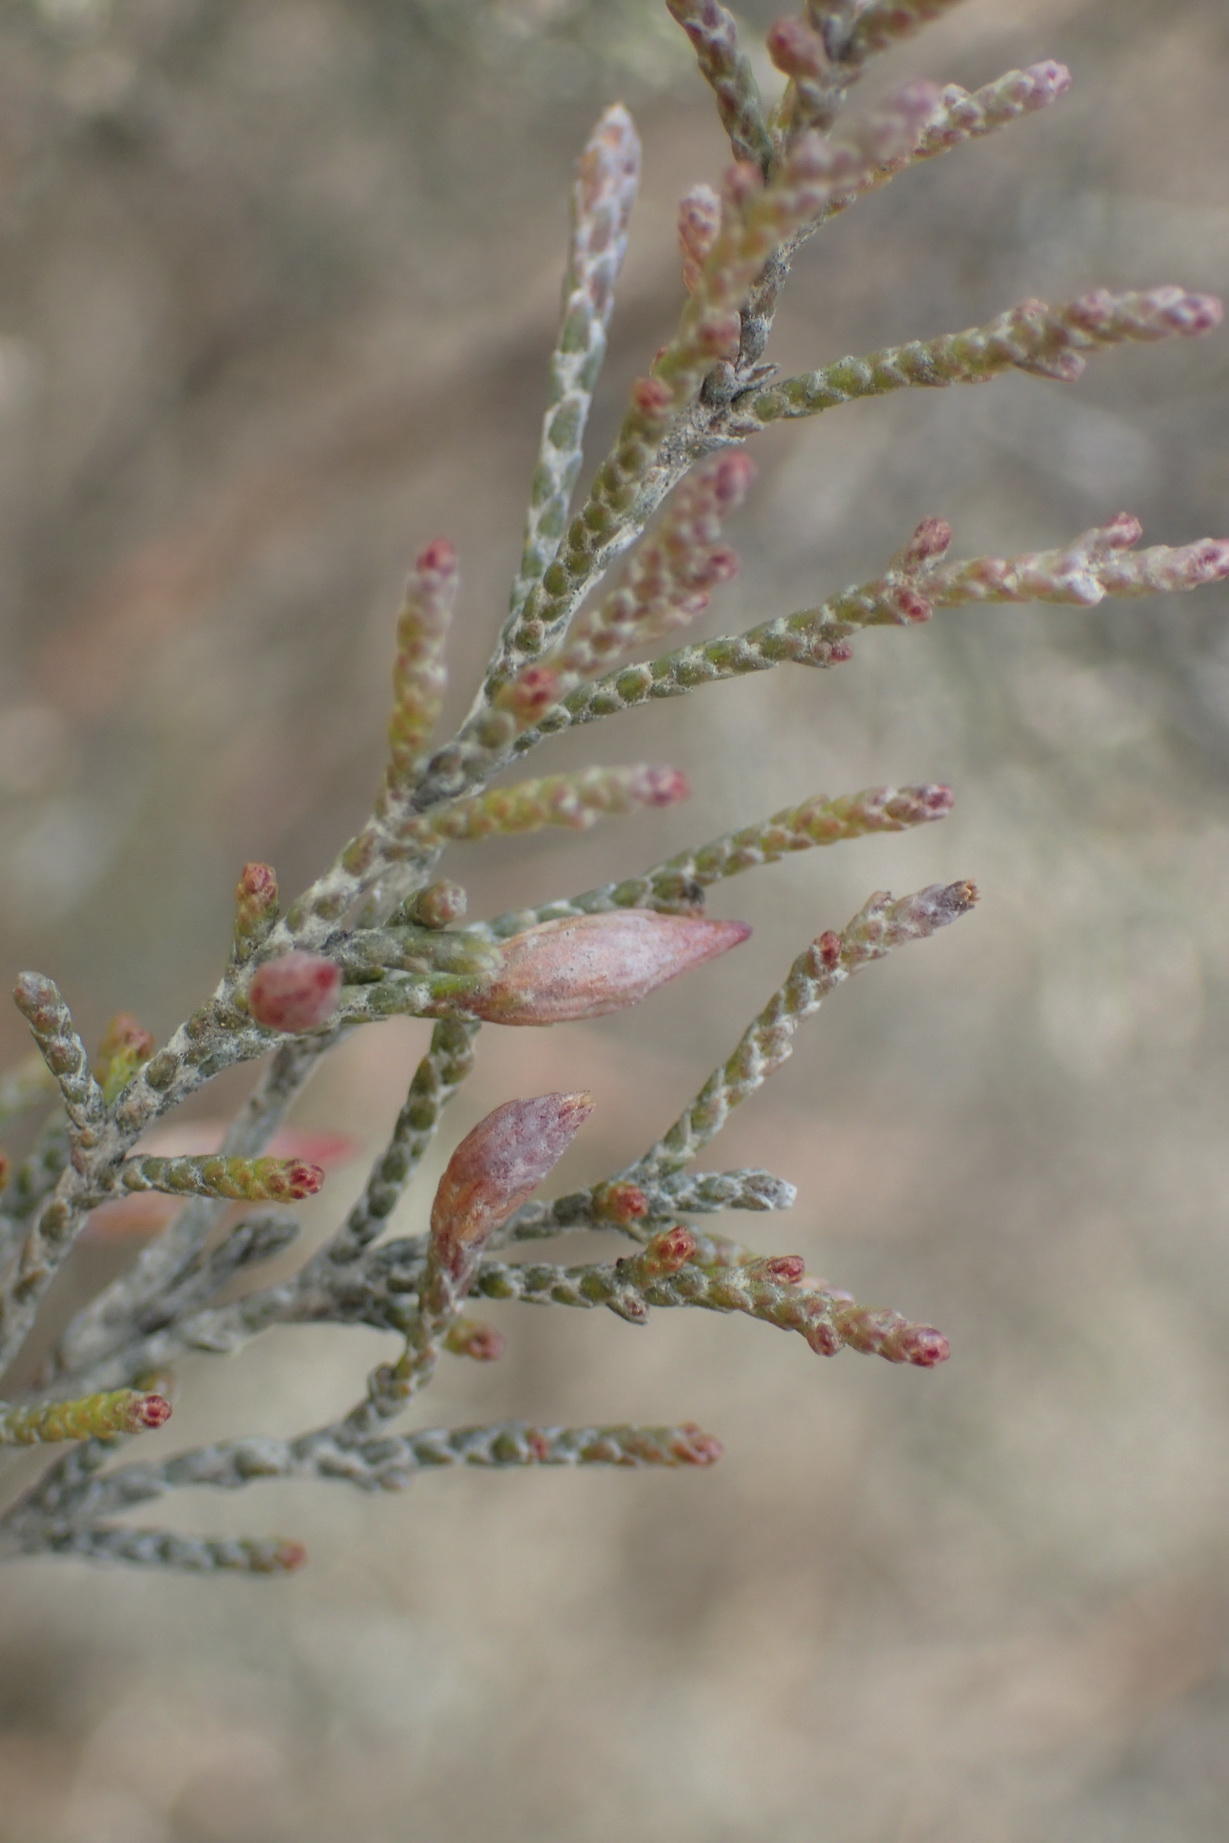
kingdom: Plantae
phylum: Tracheophyta
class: Magnoliopsida
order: Asterales
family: Asteraceae
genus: Dicerothamnus
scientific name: Dicerothamnus rhinocerotis
